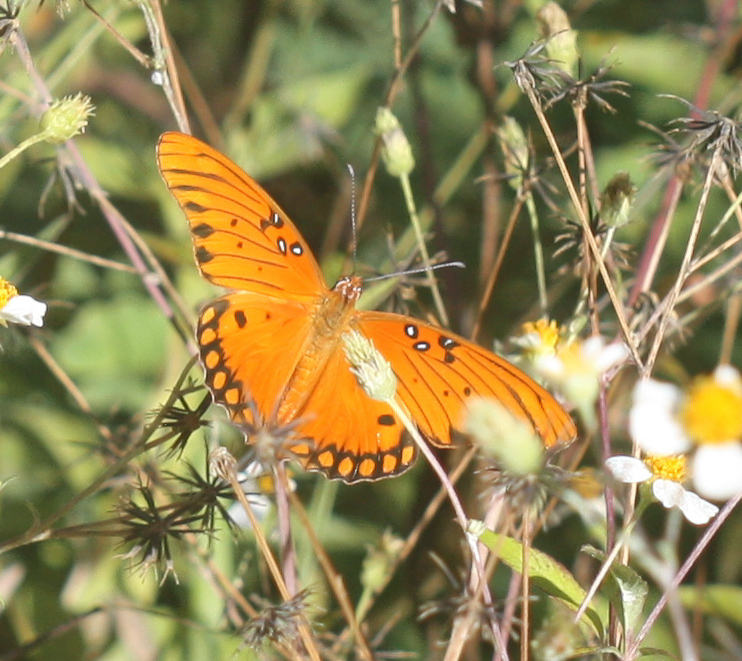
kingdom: Animalia
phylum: Arthropoda
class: Insecta
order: Lepidoptera
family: Nymphalidae
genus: Dione
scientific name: Dione vanillae
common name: Gulf fritillary
